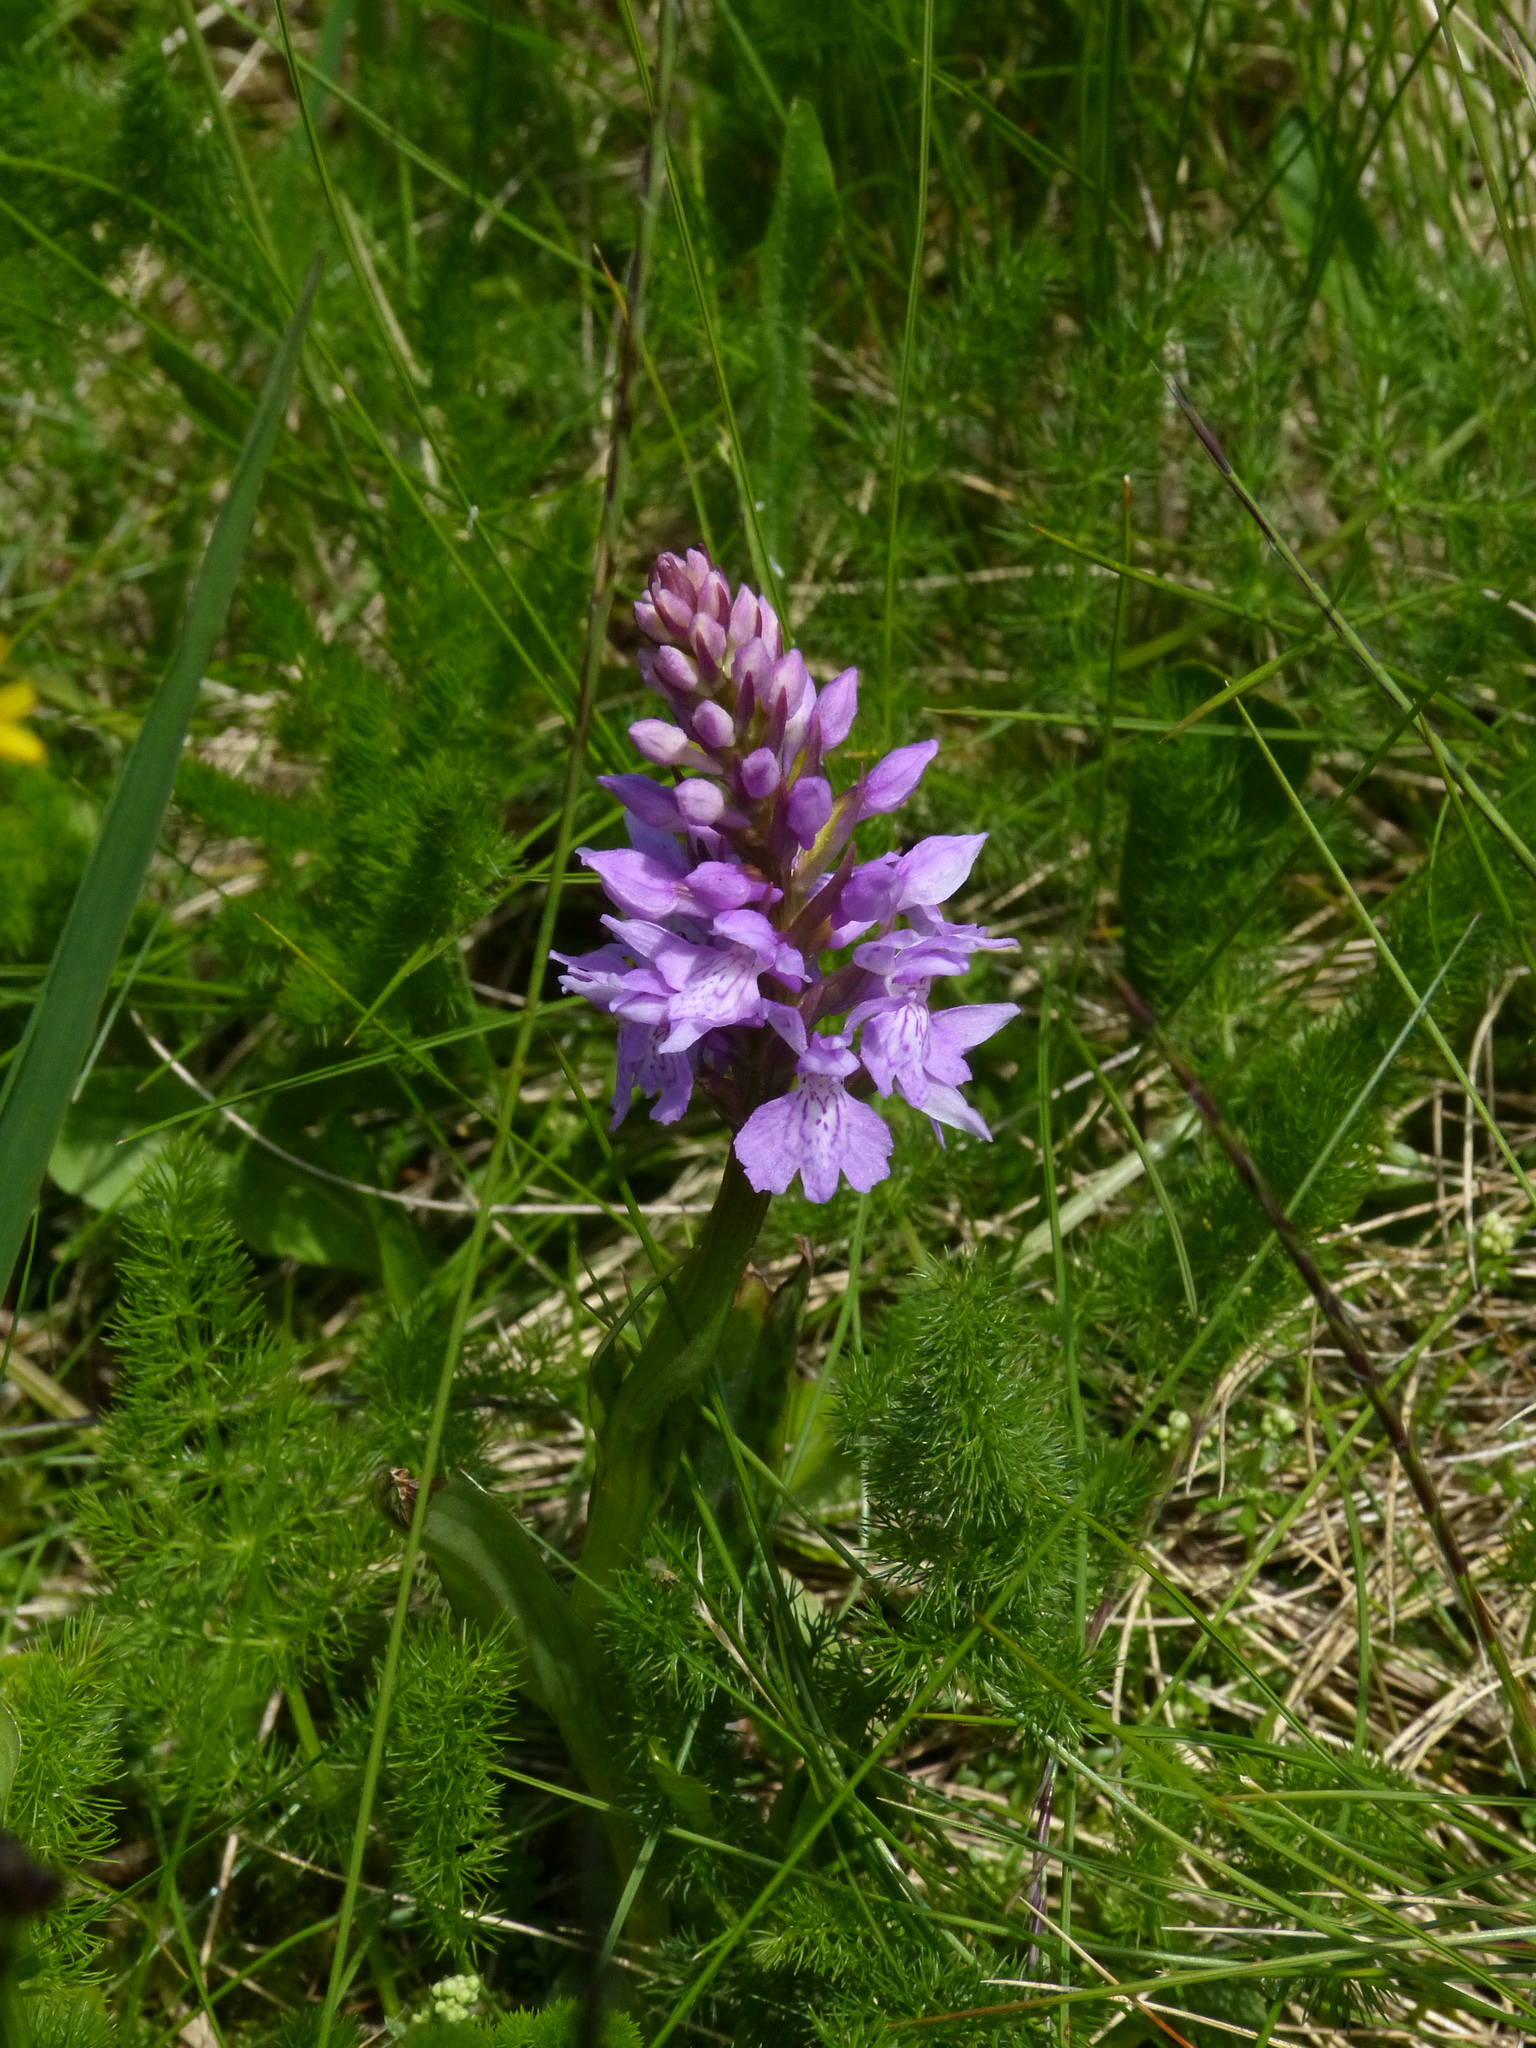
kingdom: Plantae
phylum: Tracheophyta
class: Liliopsida
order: Asparagales
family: Orchidaceae
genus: Dactylorhiza
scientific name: Dactylorhiza maculata
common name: Heath spotted-orchid
